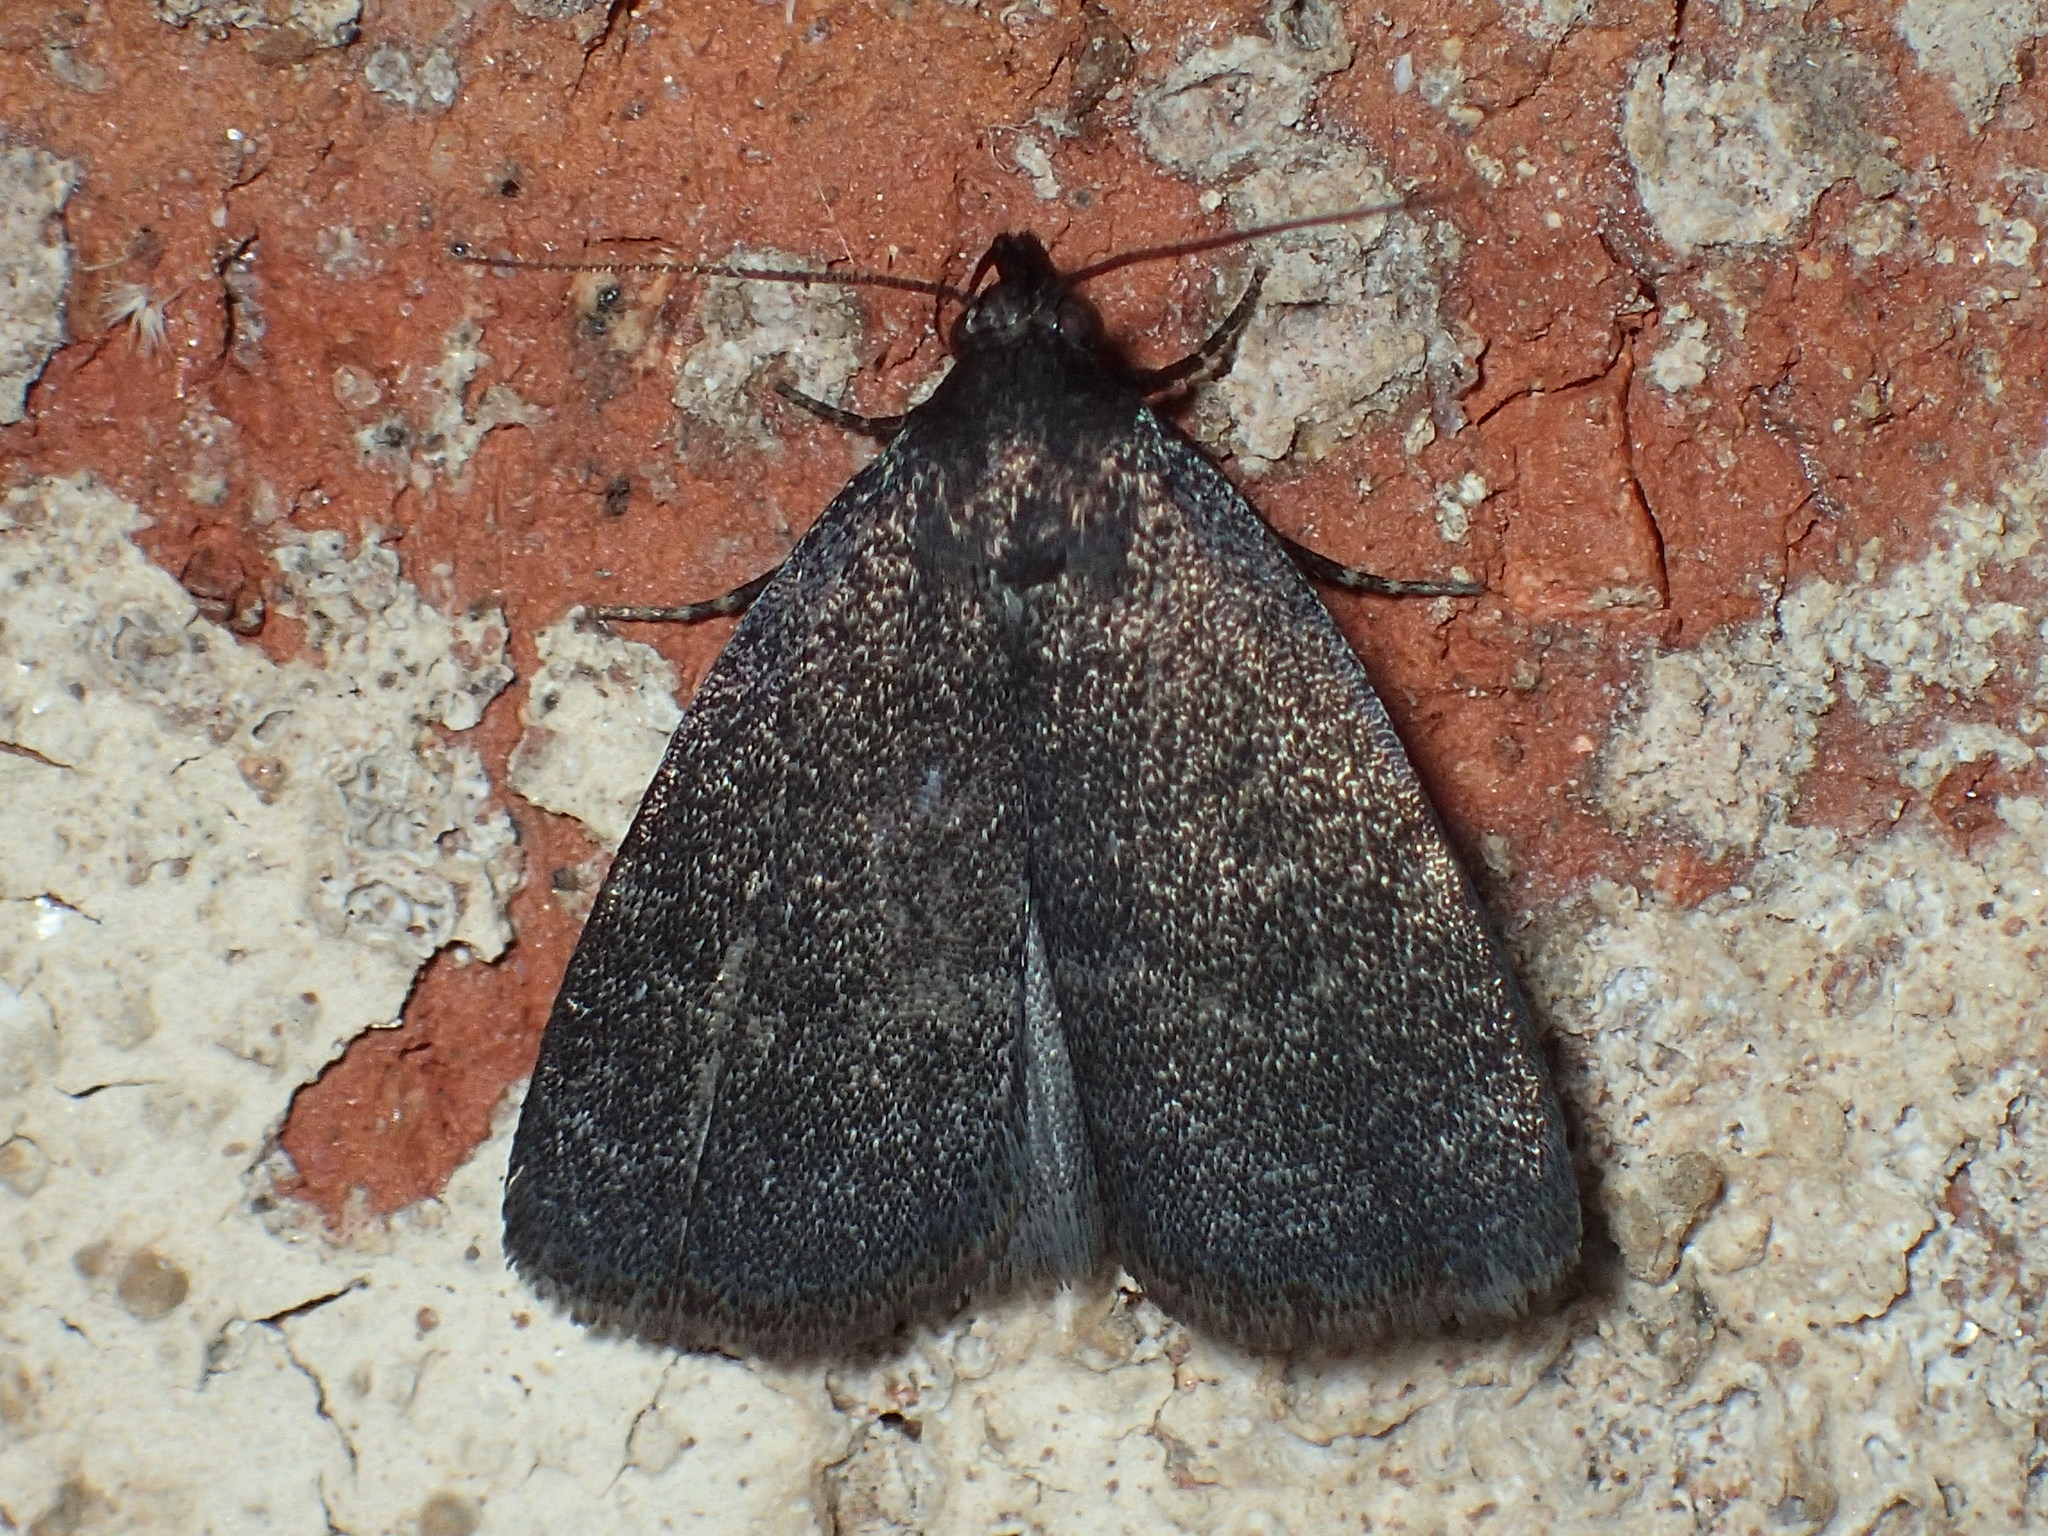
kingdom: Animalia
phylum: Arthropoda
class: Insecta
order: Lepidoptera
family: Erebidae
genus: Idia
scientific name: Idia rotundalis
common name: Rotund idia moth
